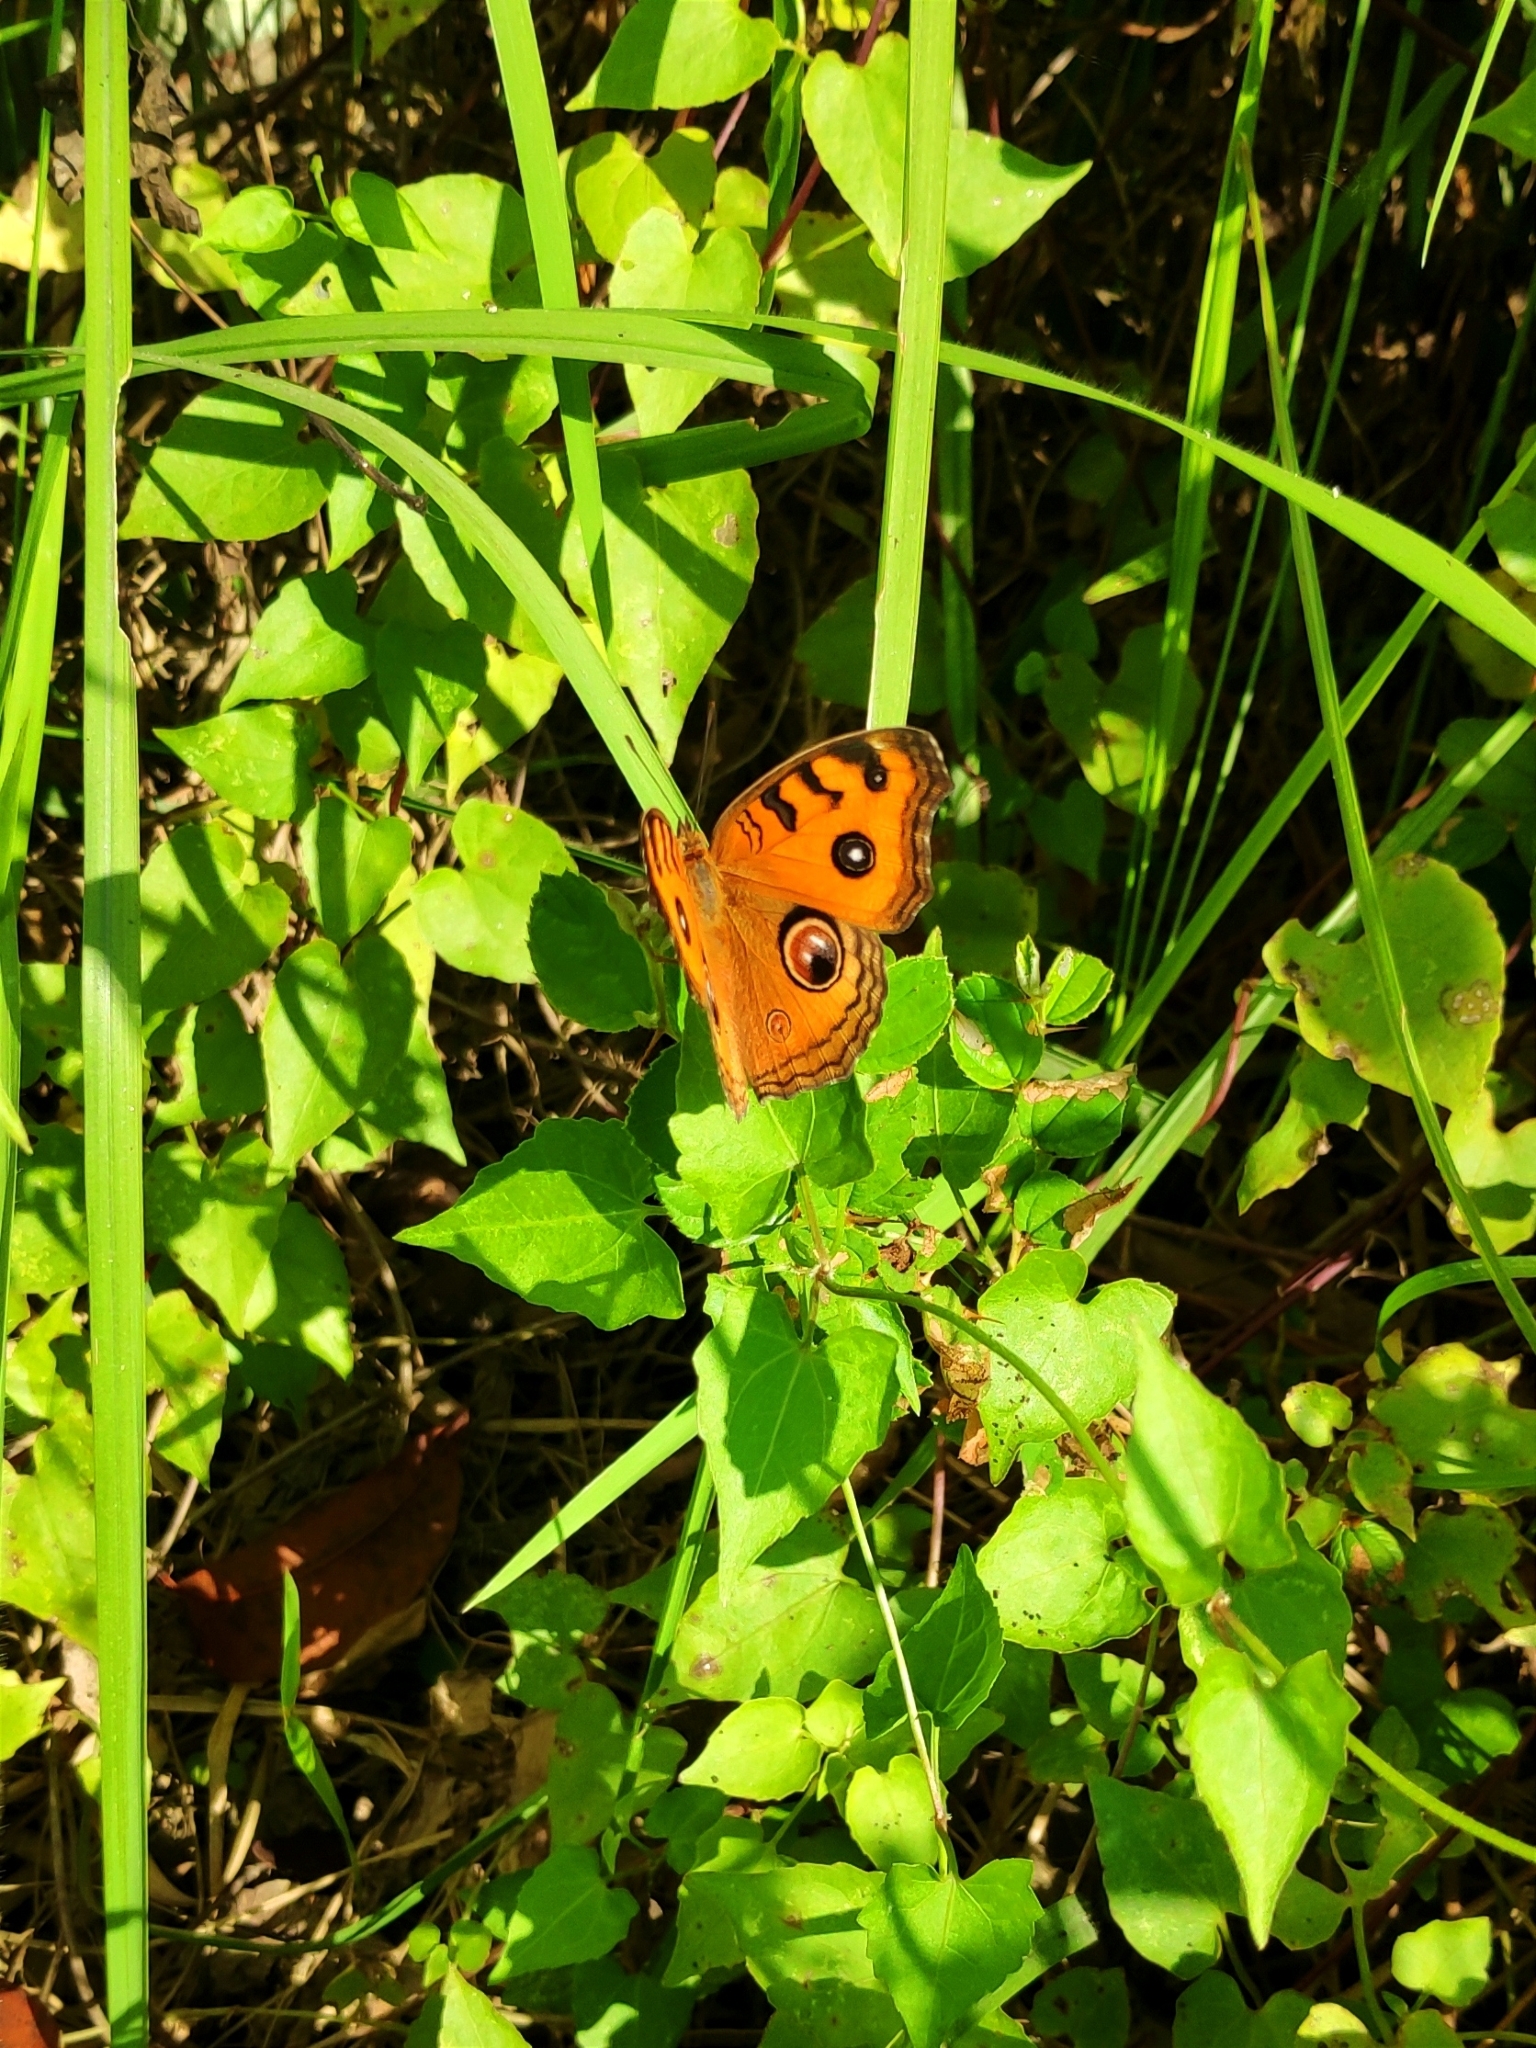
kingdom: Animalia
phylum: Arthropoda
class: Insecta
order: Lepidoptera
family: Nymphalidae
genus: Junonia
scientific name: Junonia almana
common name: Peacock pansy
